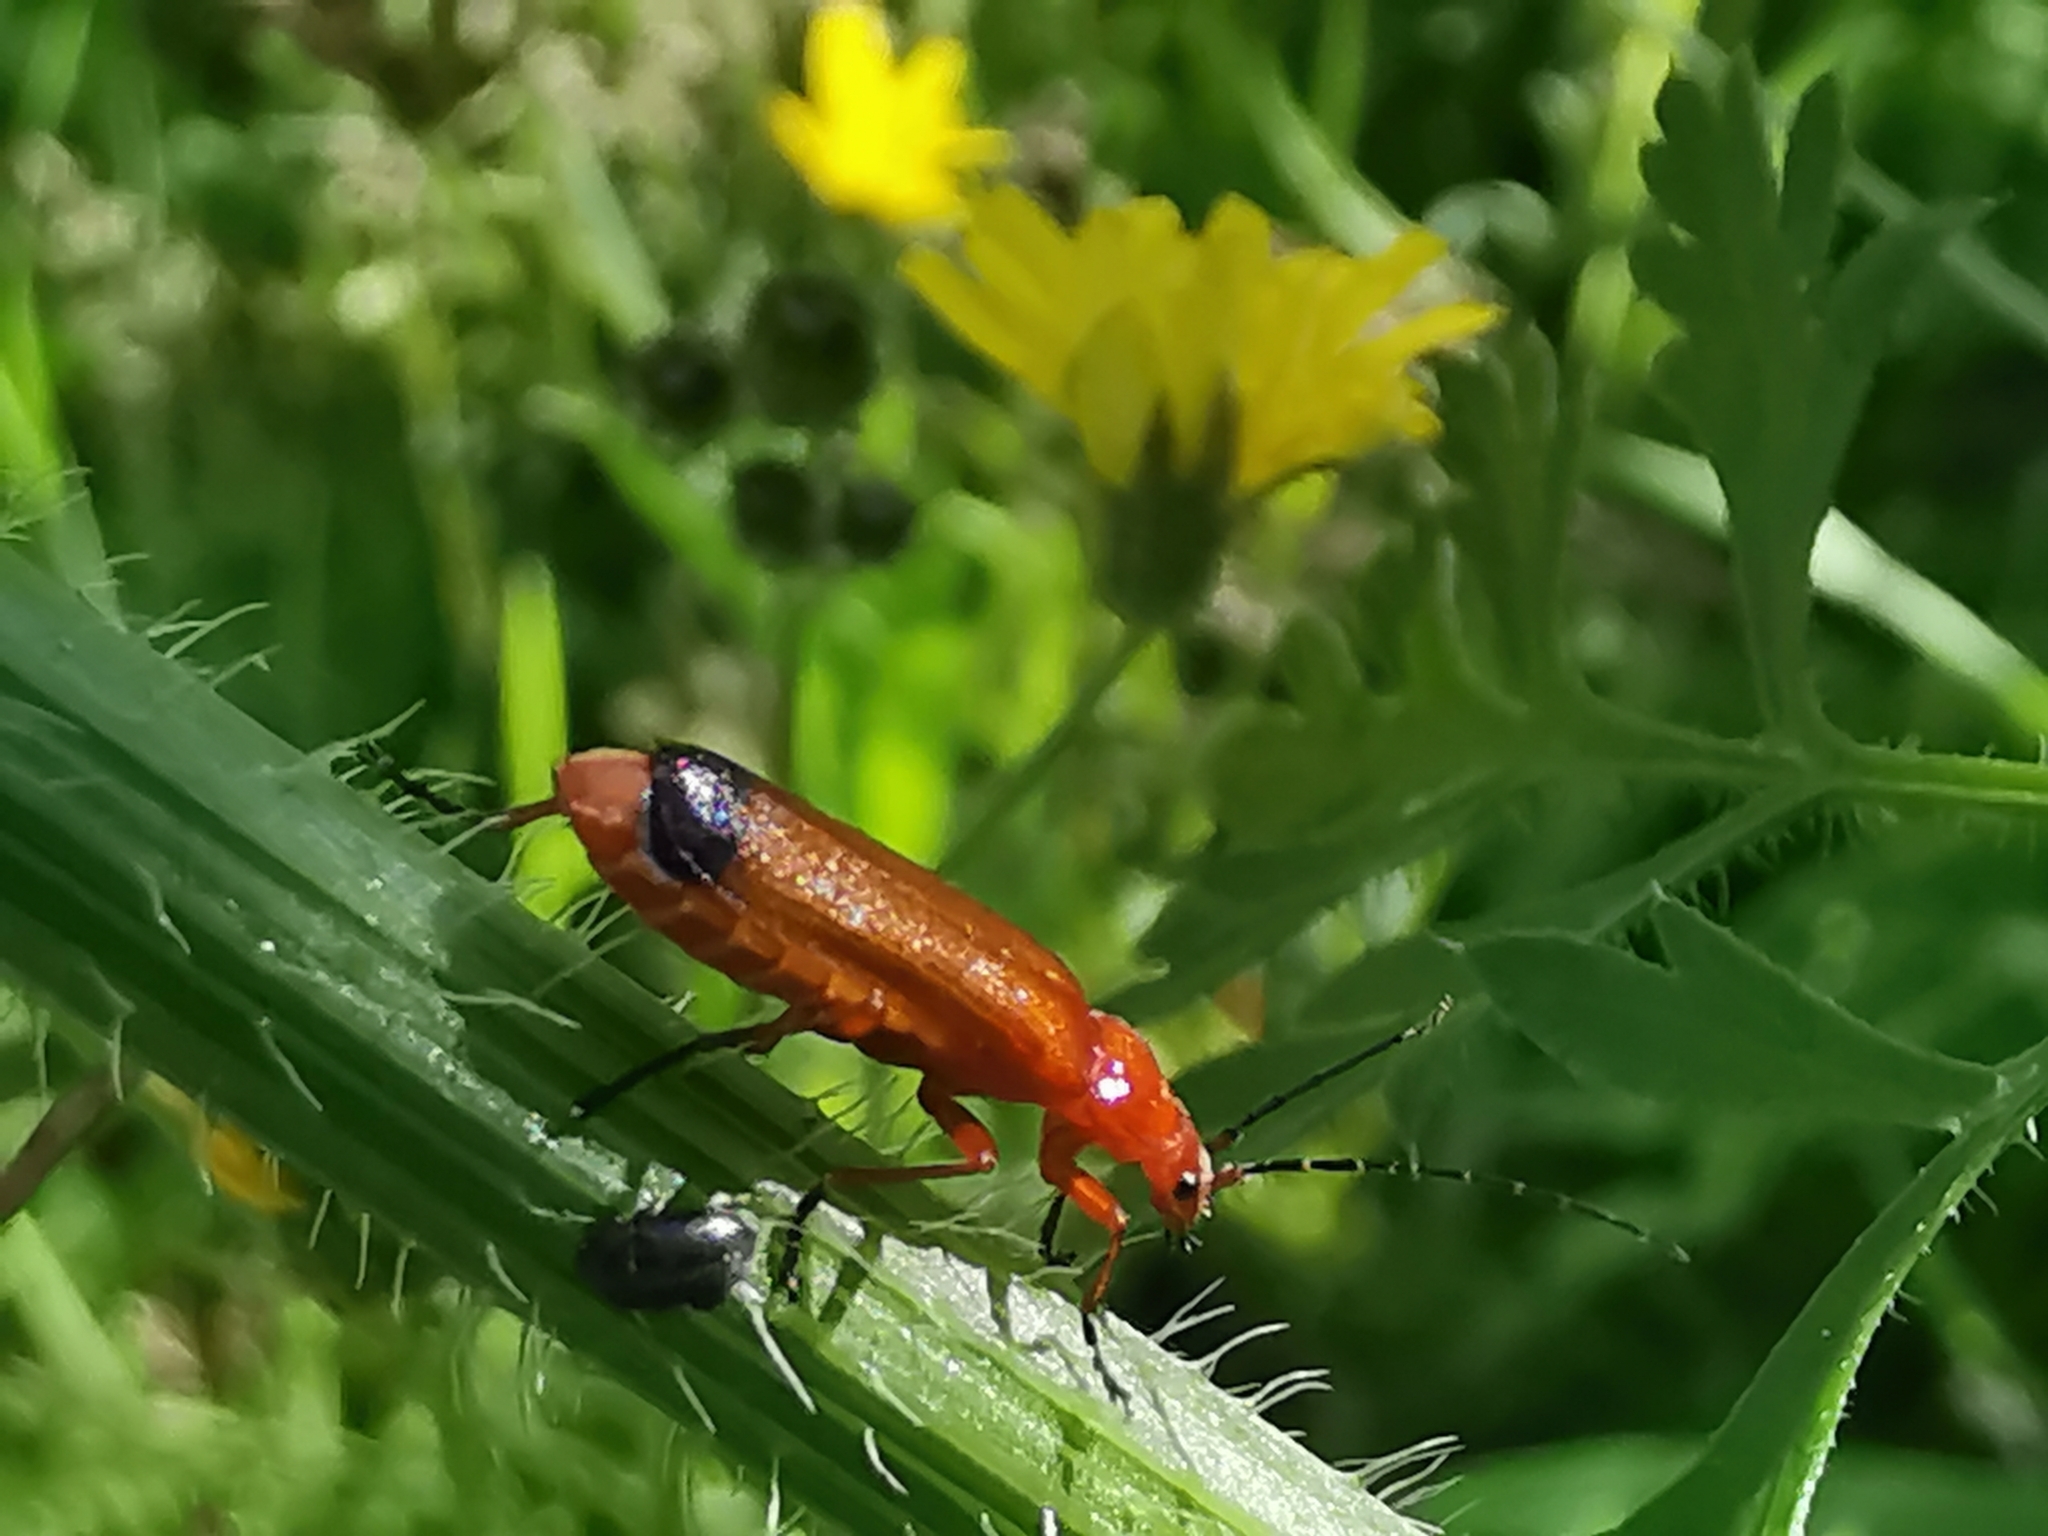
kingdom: Animalia
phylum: Arthropoda
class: Insecta
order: Coleoptera
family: Cantharidae
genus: Rhagonycha
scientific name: Rhagonycha fulva
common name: Common red soldier beetle
